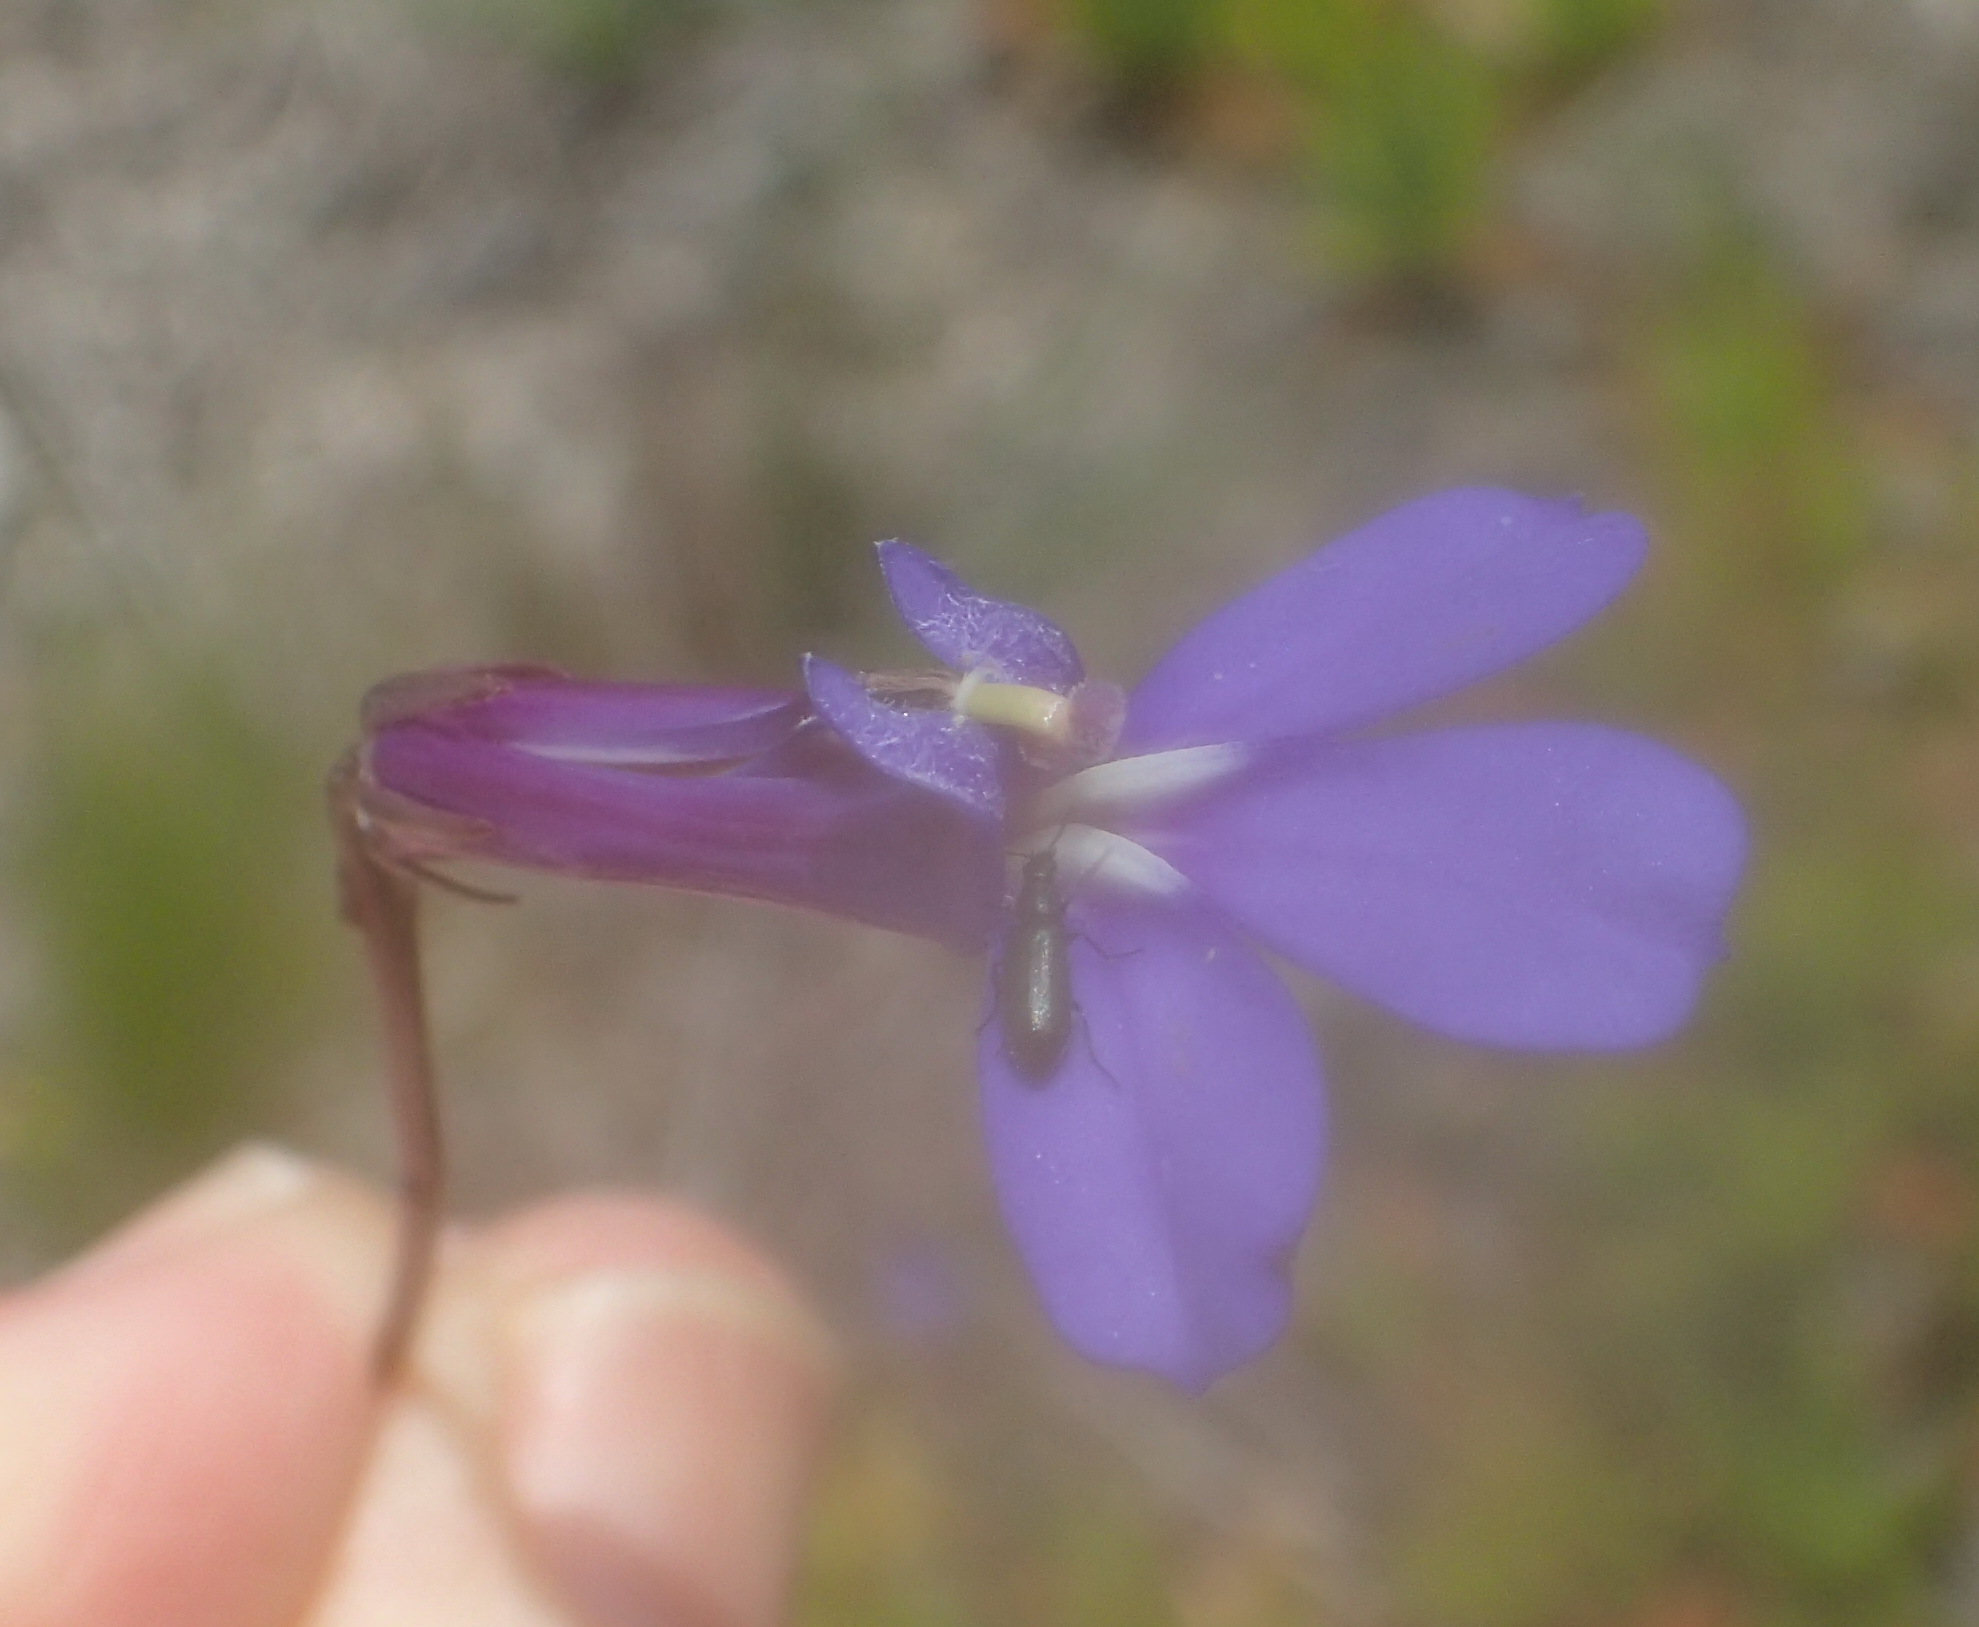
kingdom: Plantae
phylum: Tracheophyta
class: Magnoliopsida
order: Asterales
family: Campanulaceae
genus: Lobelia
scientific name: Lobelia coronopifolia
